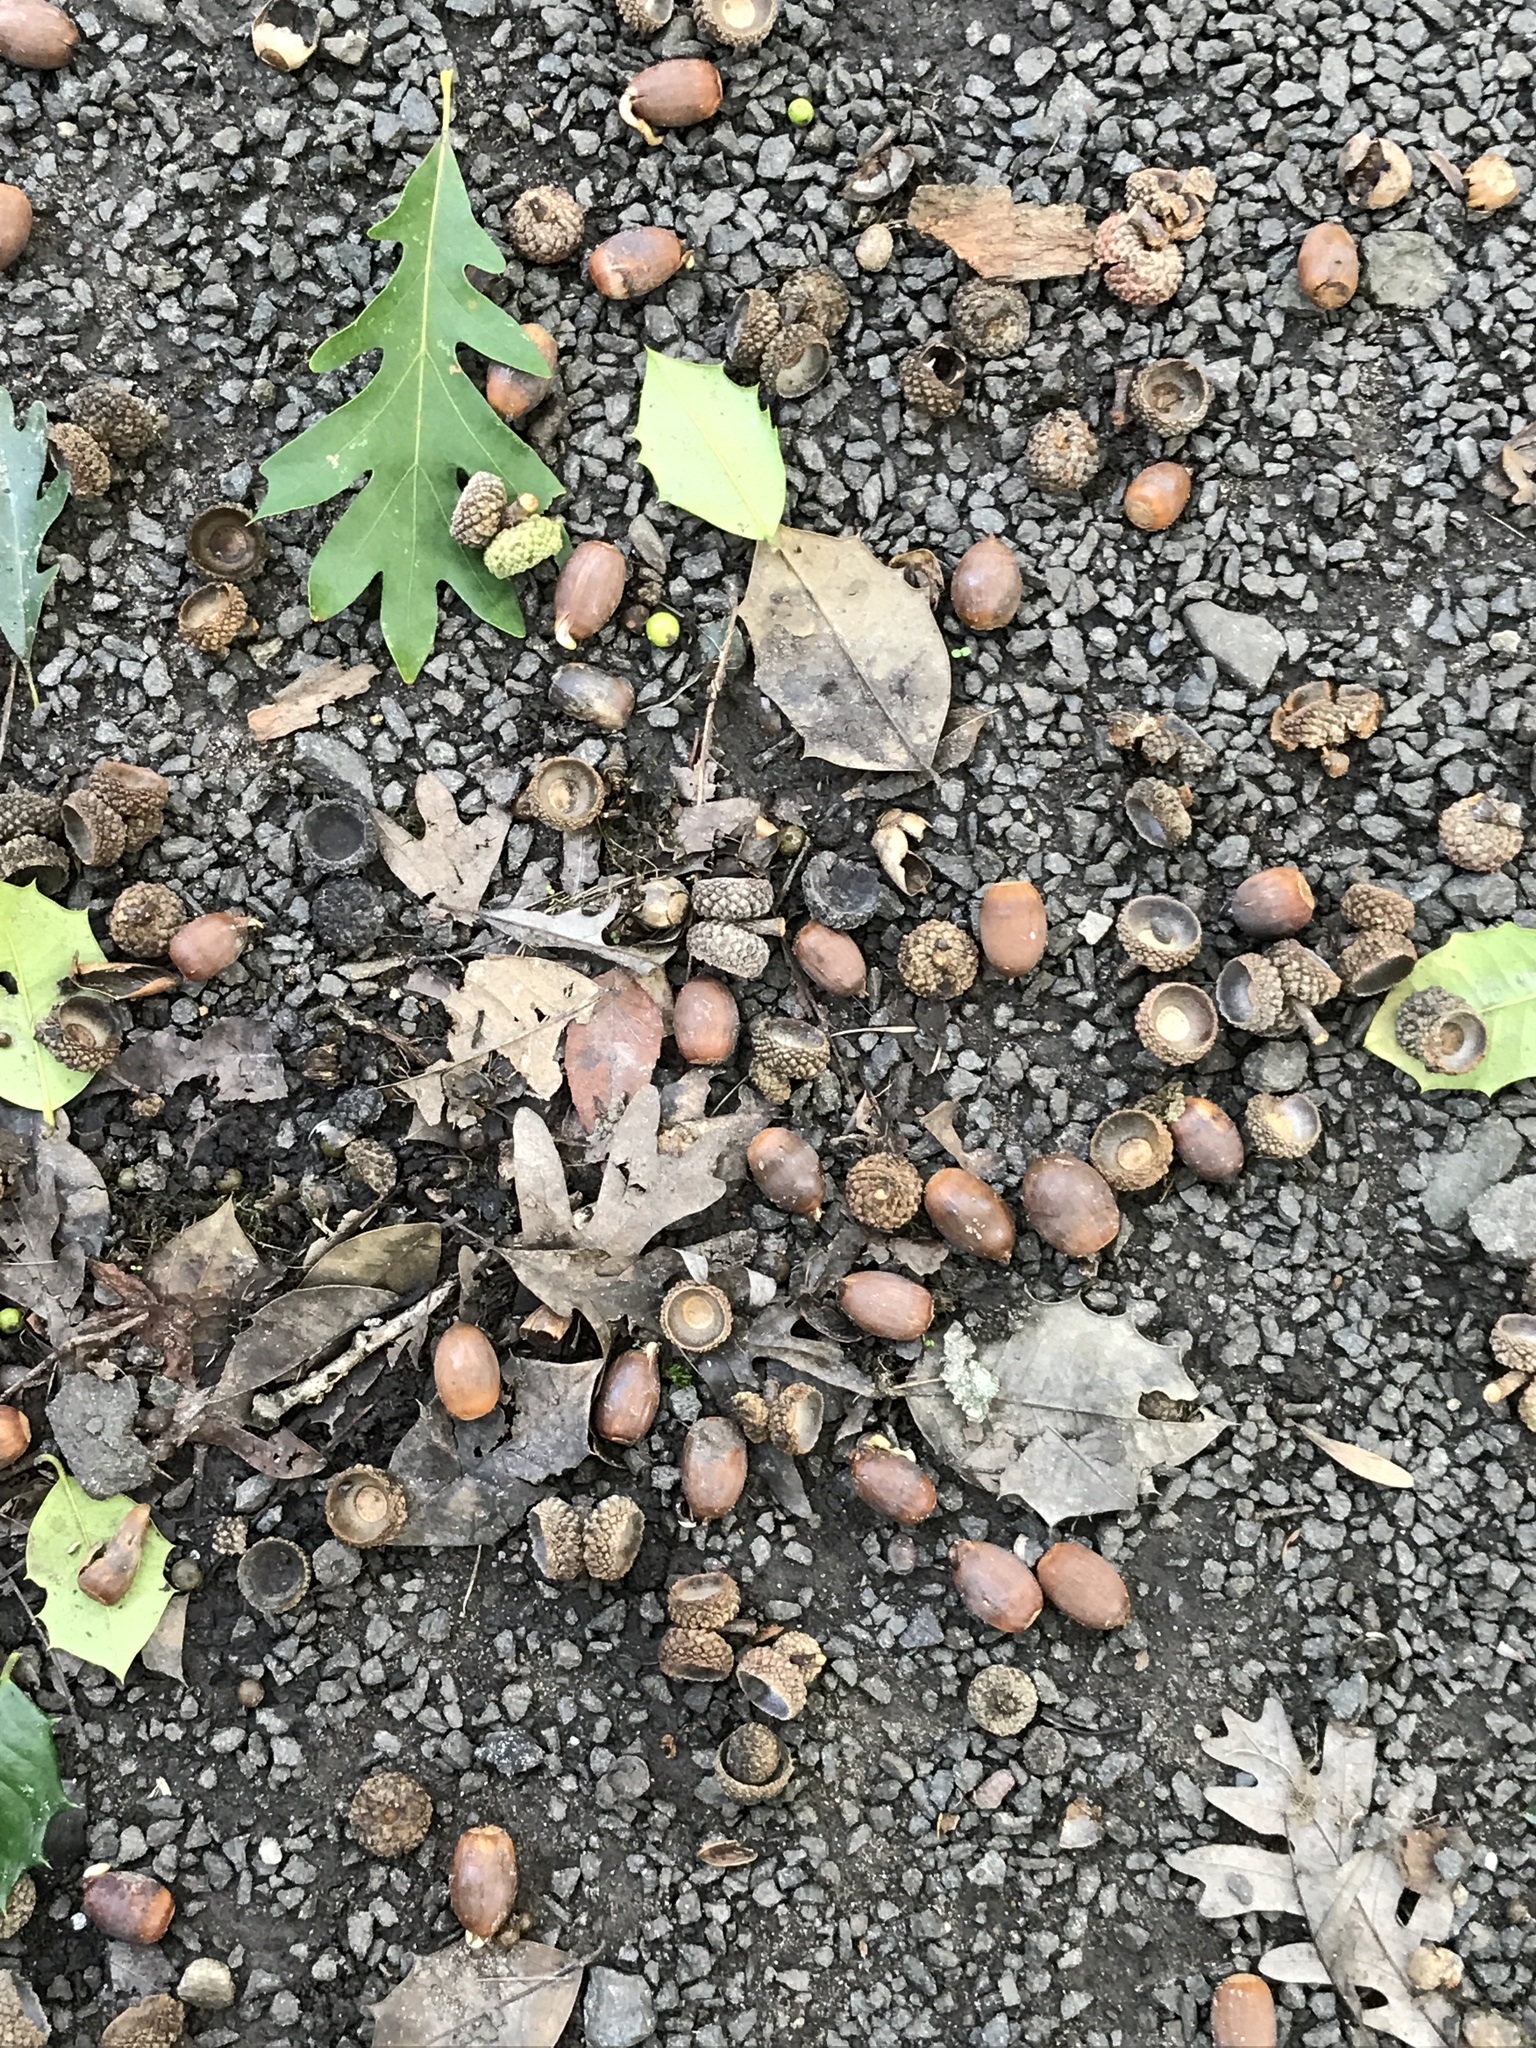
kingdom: Plantae
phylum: Tracheophyta
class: Magnoliopsida
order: Fagales
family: Fagaceae
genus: Quercus
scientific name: Quercus alba
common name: White oak
